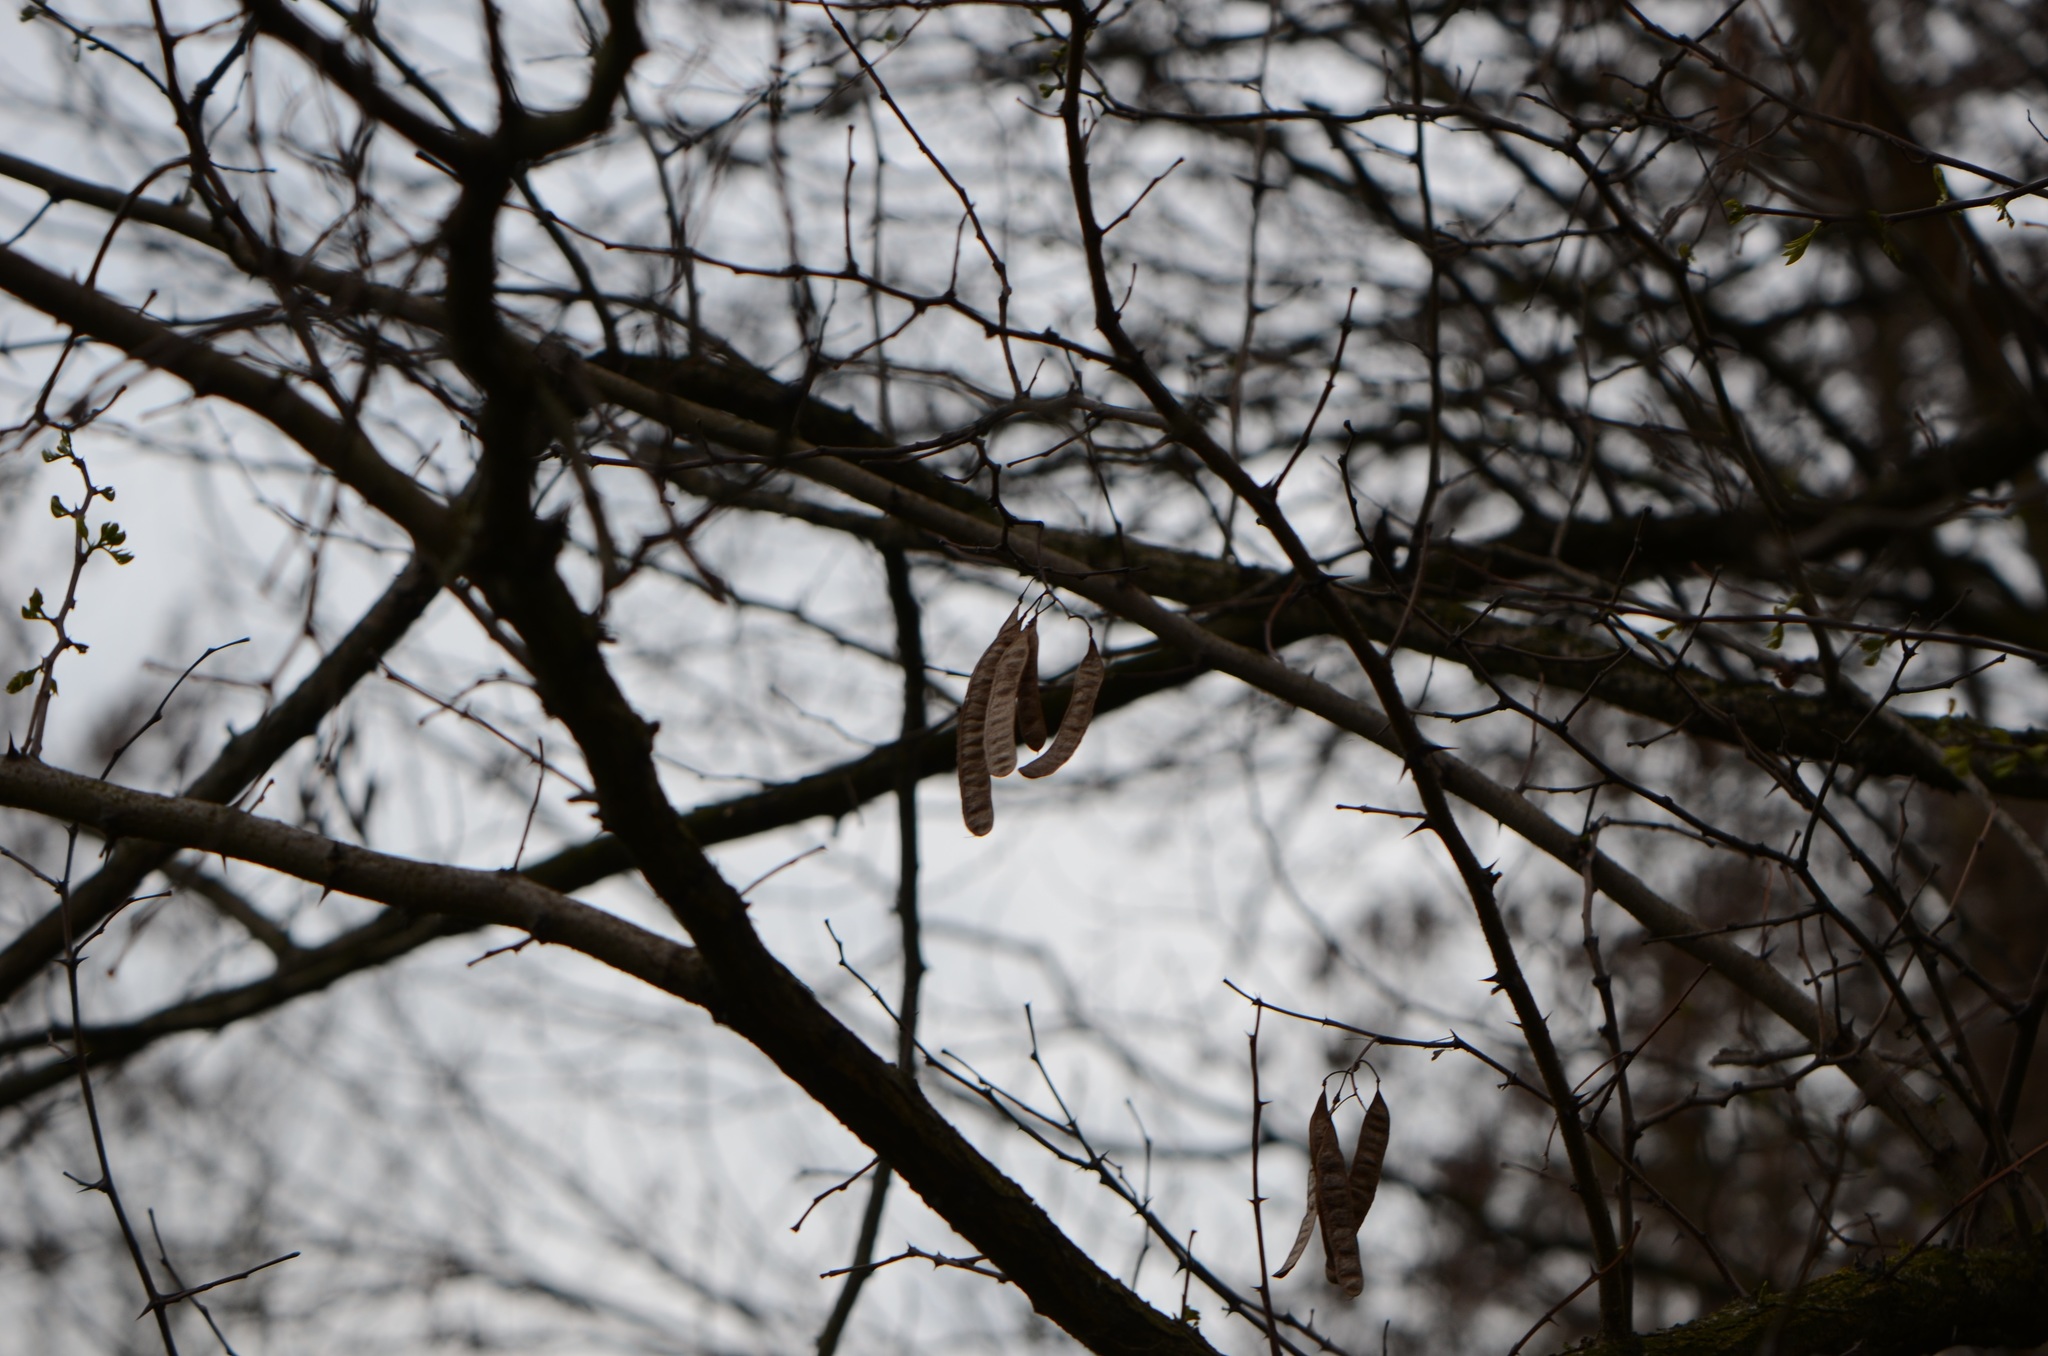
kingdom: Plantae
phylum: Tracheophyta
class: Magnoliopsida
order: Fabales
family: Fabaceae
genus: Robinia
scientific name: Robinia pseudoacacia
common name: Black locust
